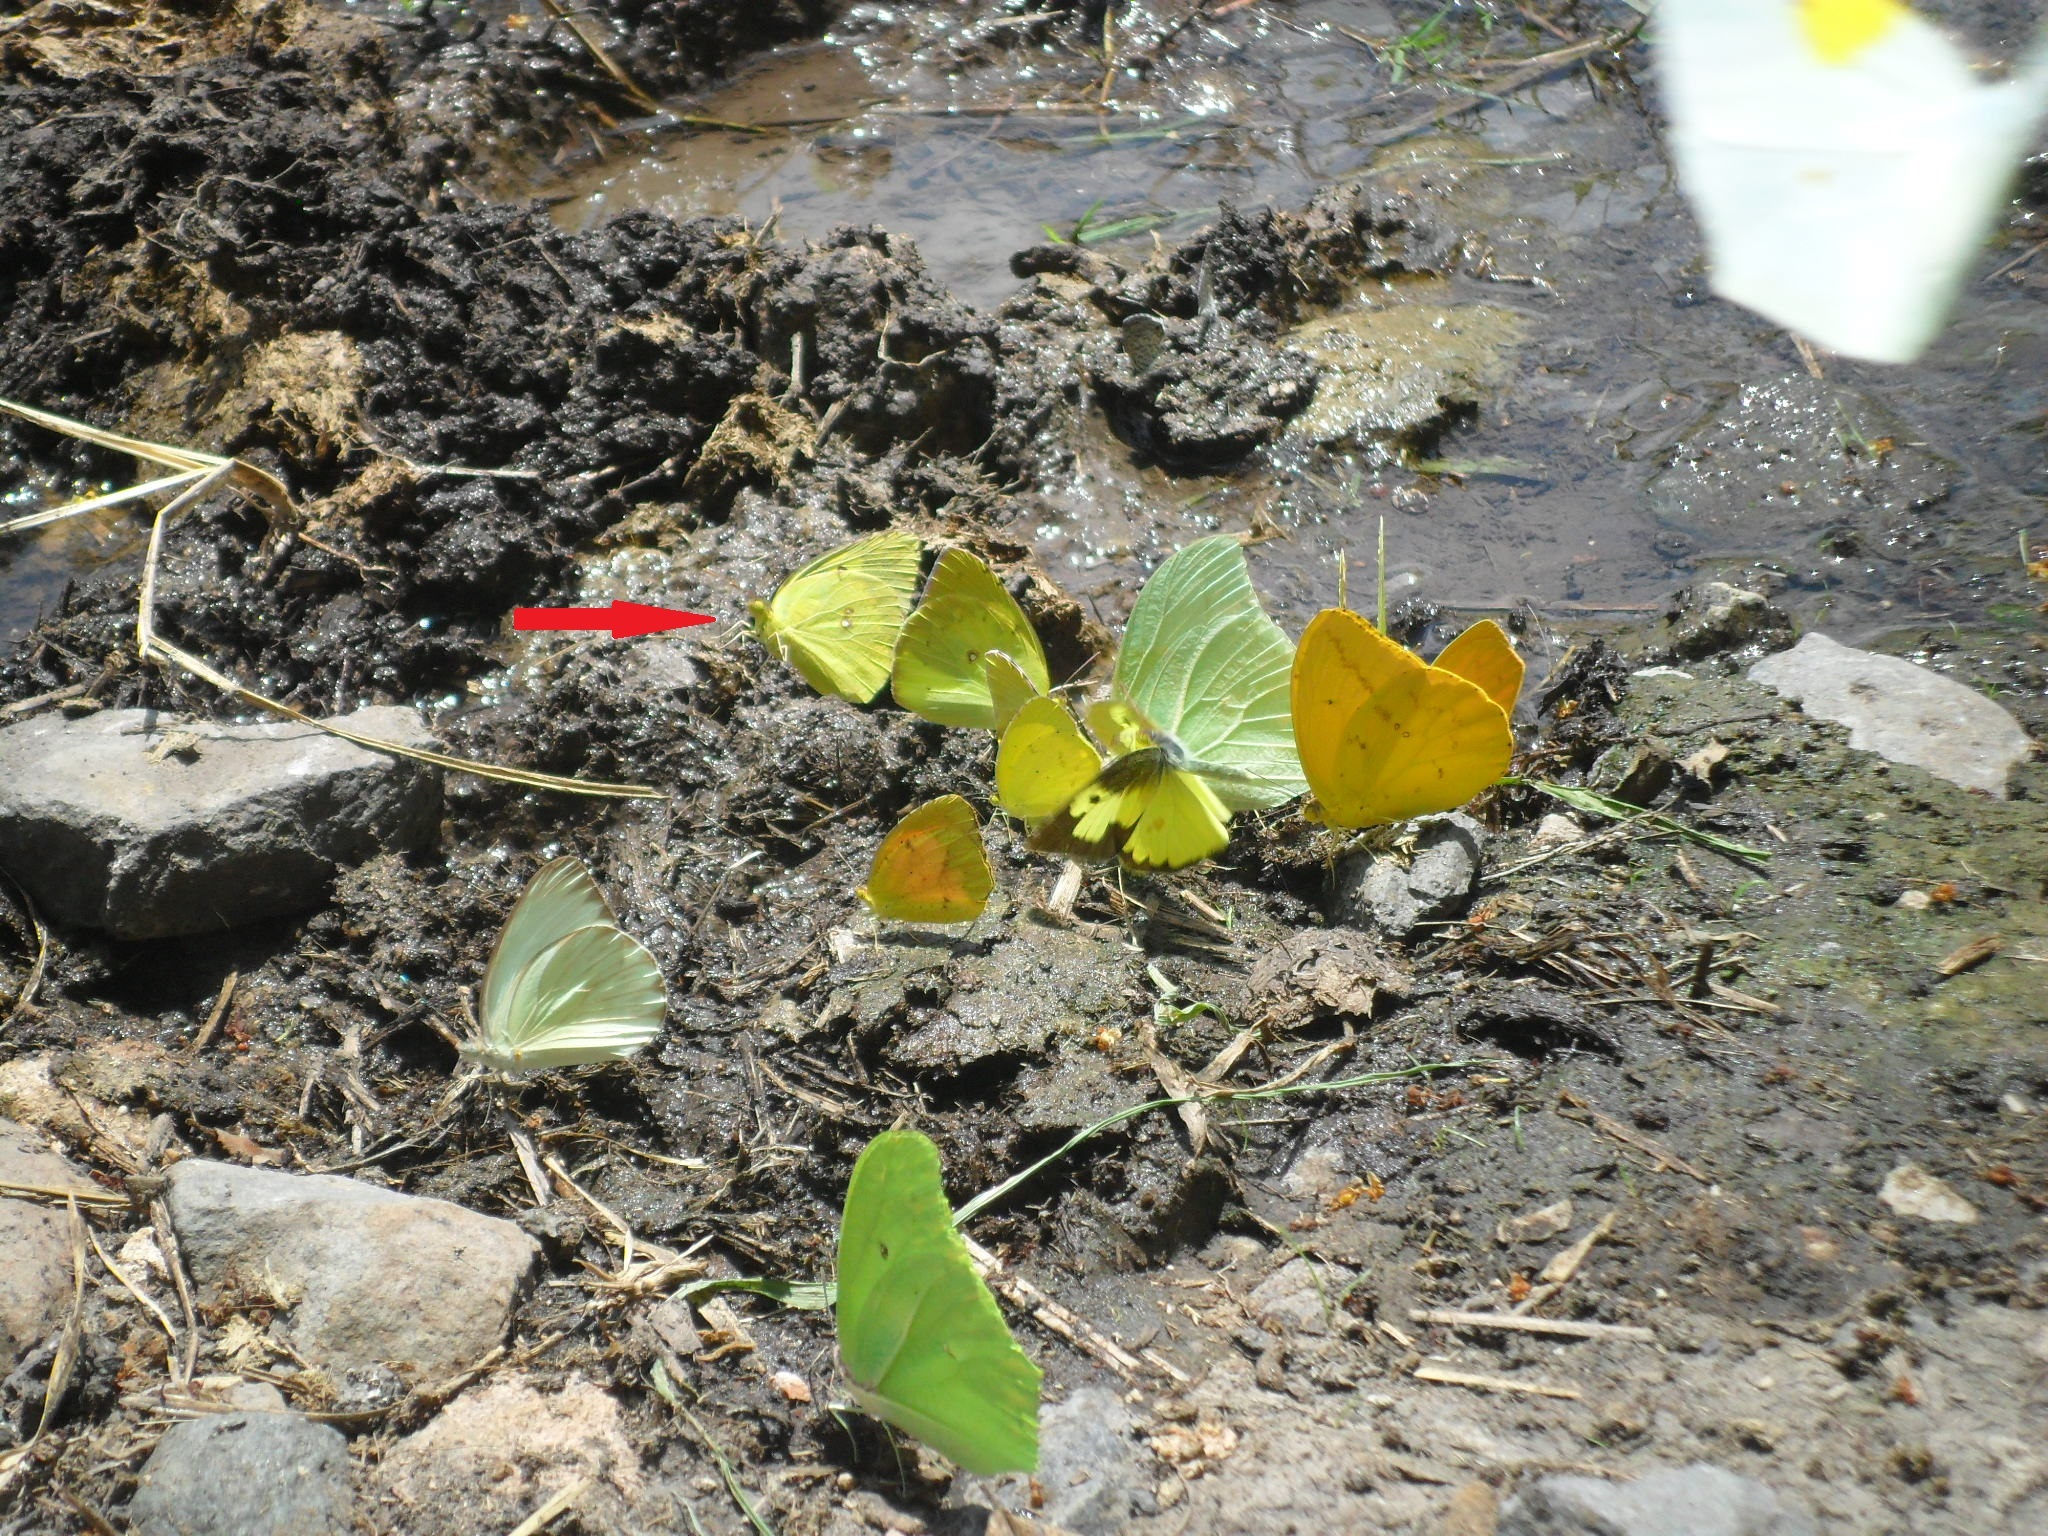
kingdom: Animalia
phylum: Arthropoda
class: Insecta
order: Lepidoptera
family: Pieridae
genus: Zerene
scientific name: Zerene cesonia
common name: Southern dogface
